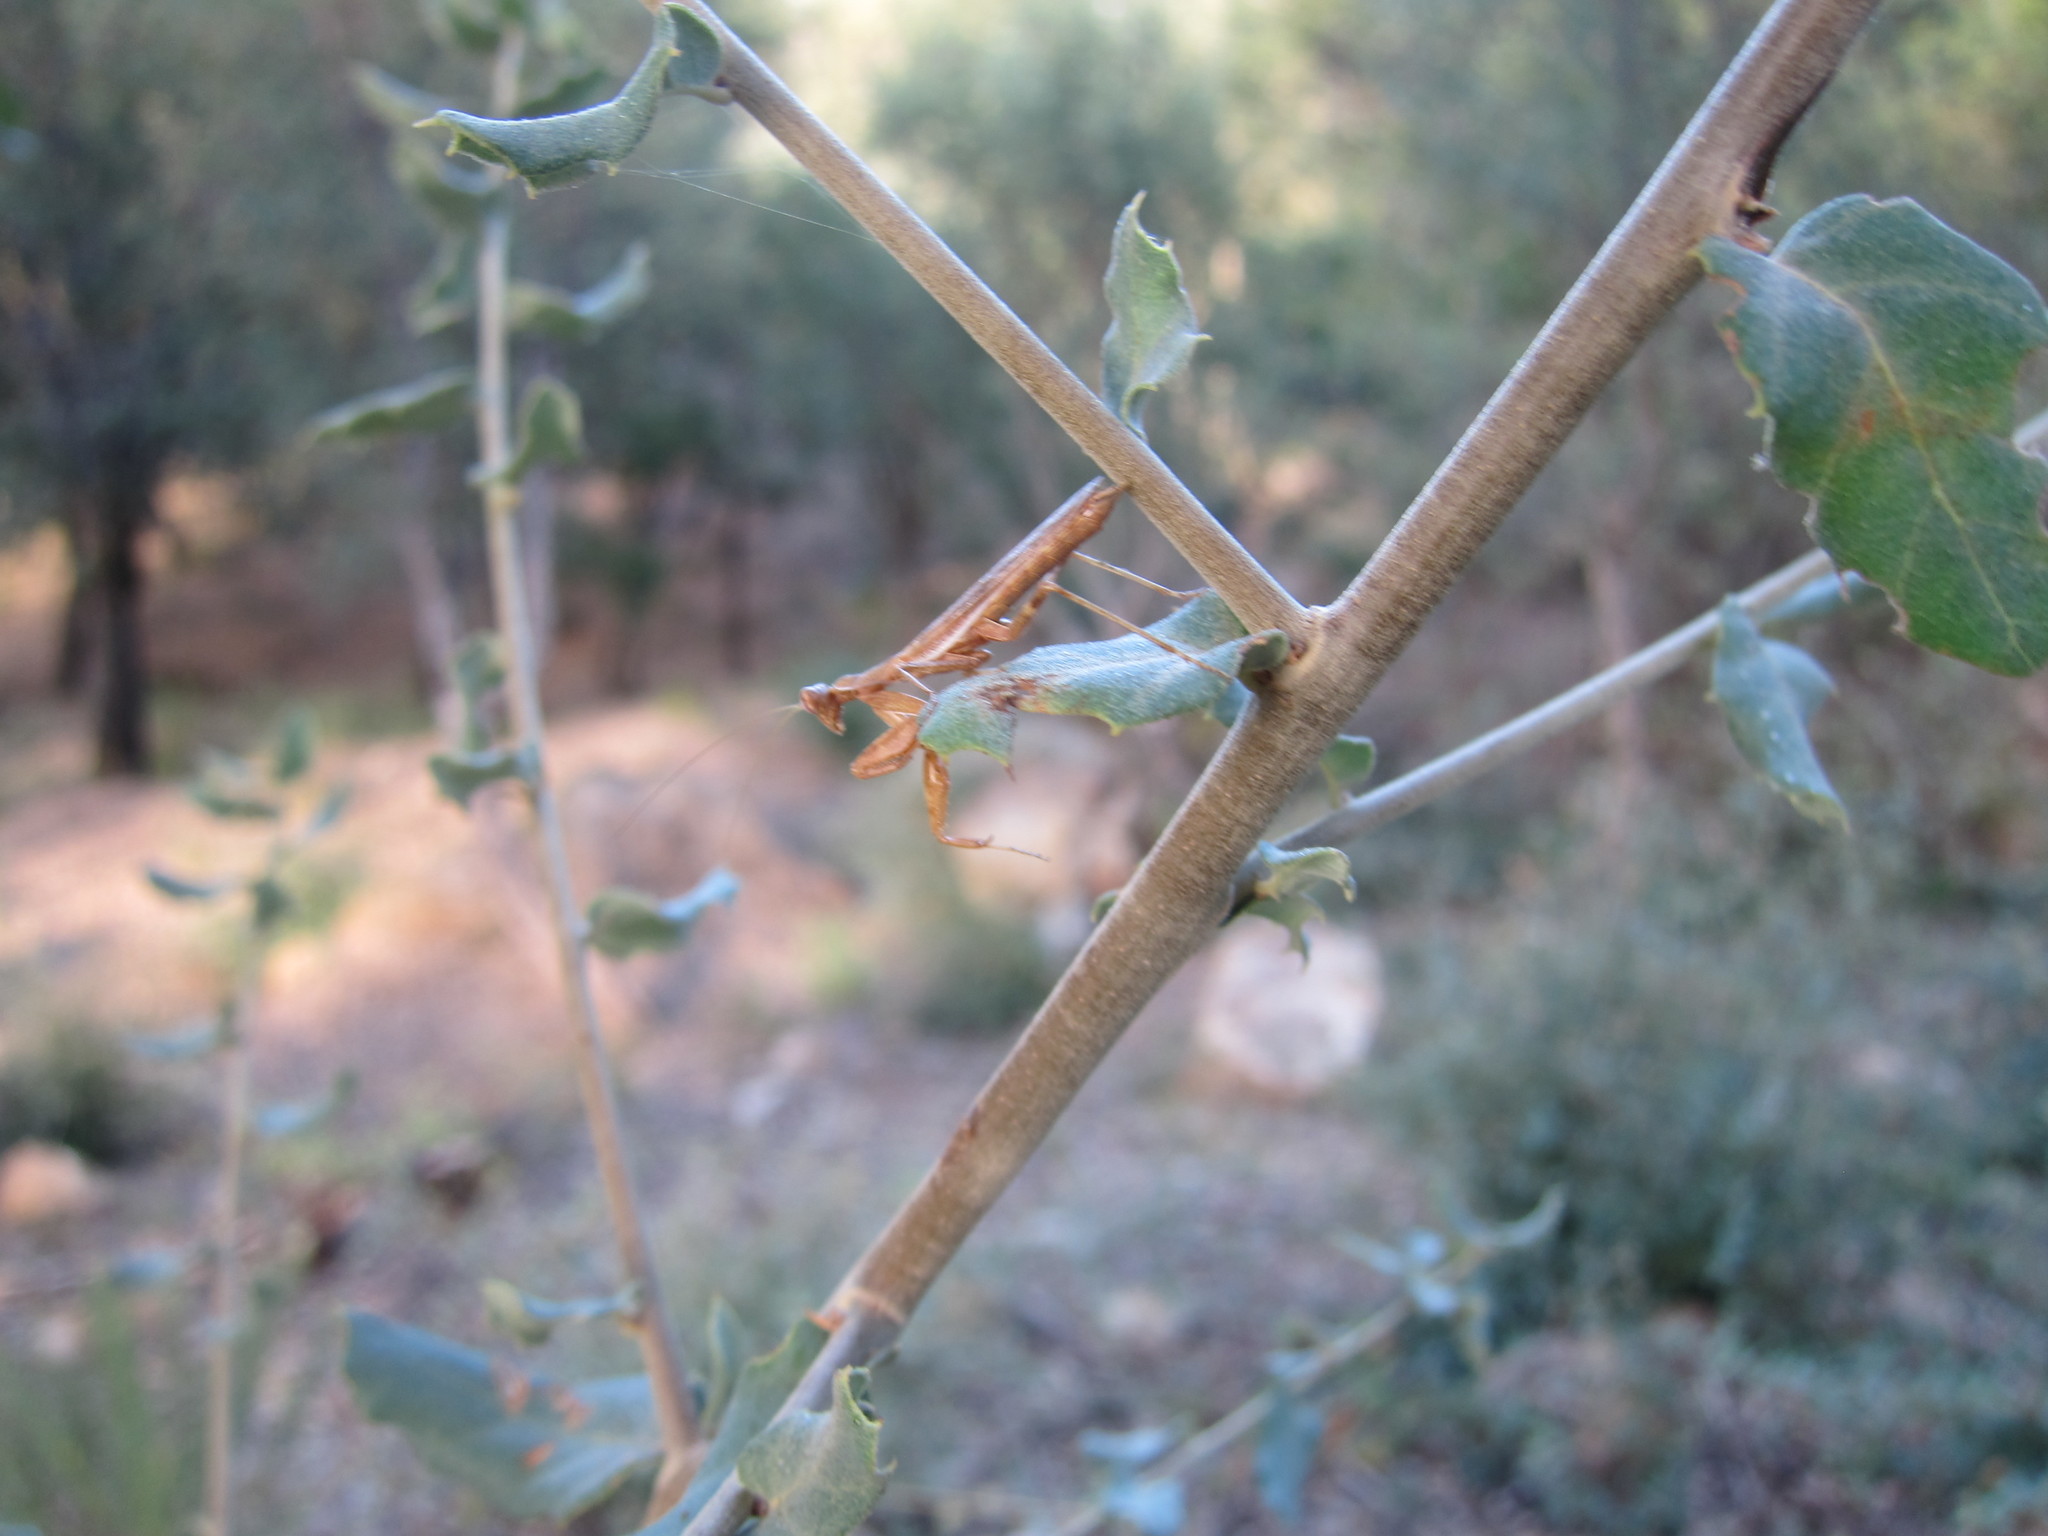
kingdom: Animalia
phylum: Arthropoda
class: Insecta
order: Mantodea
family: Amelidae
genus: Ameles
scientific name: Ameles spallanzania
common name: European dwarf mantis
